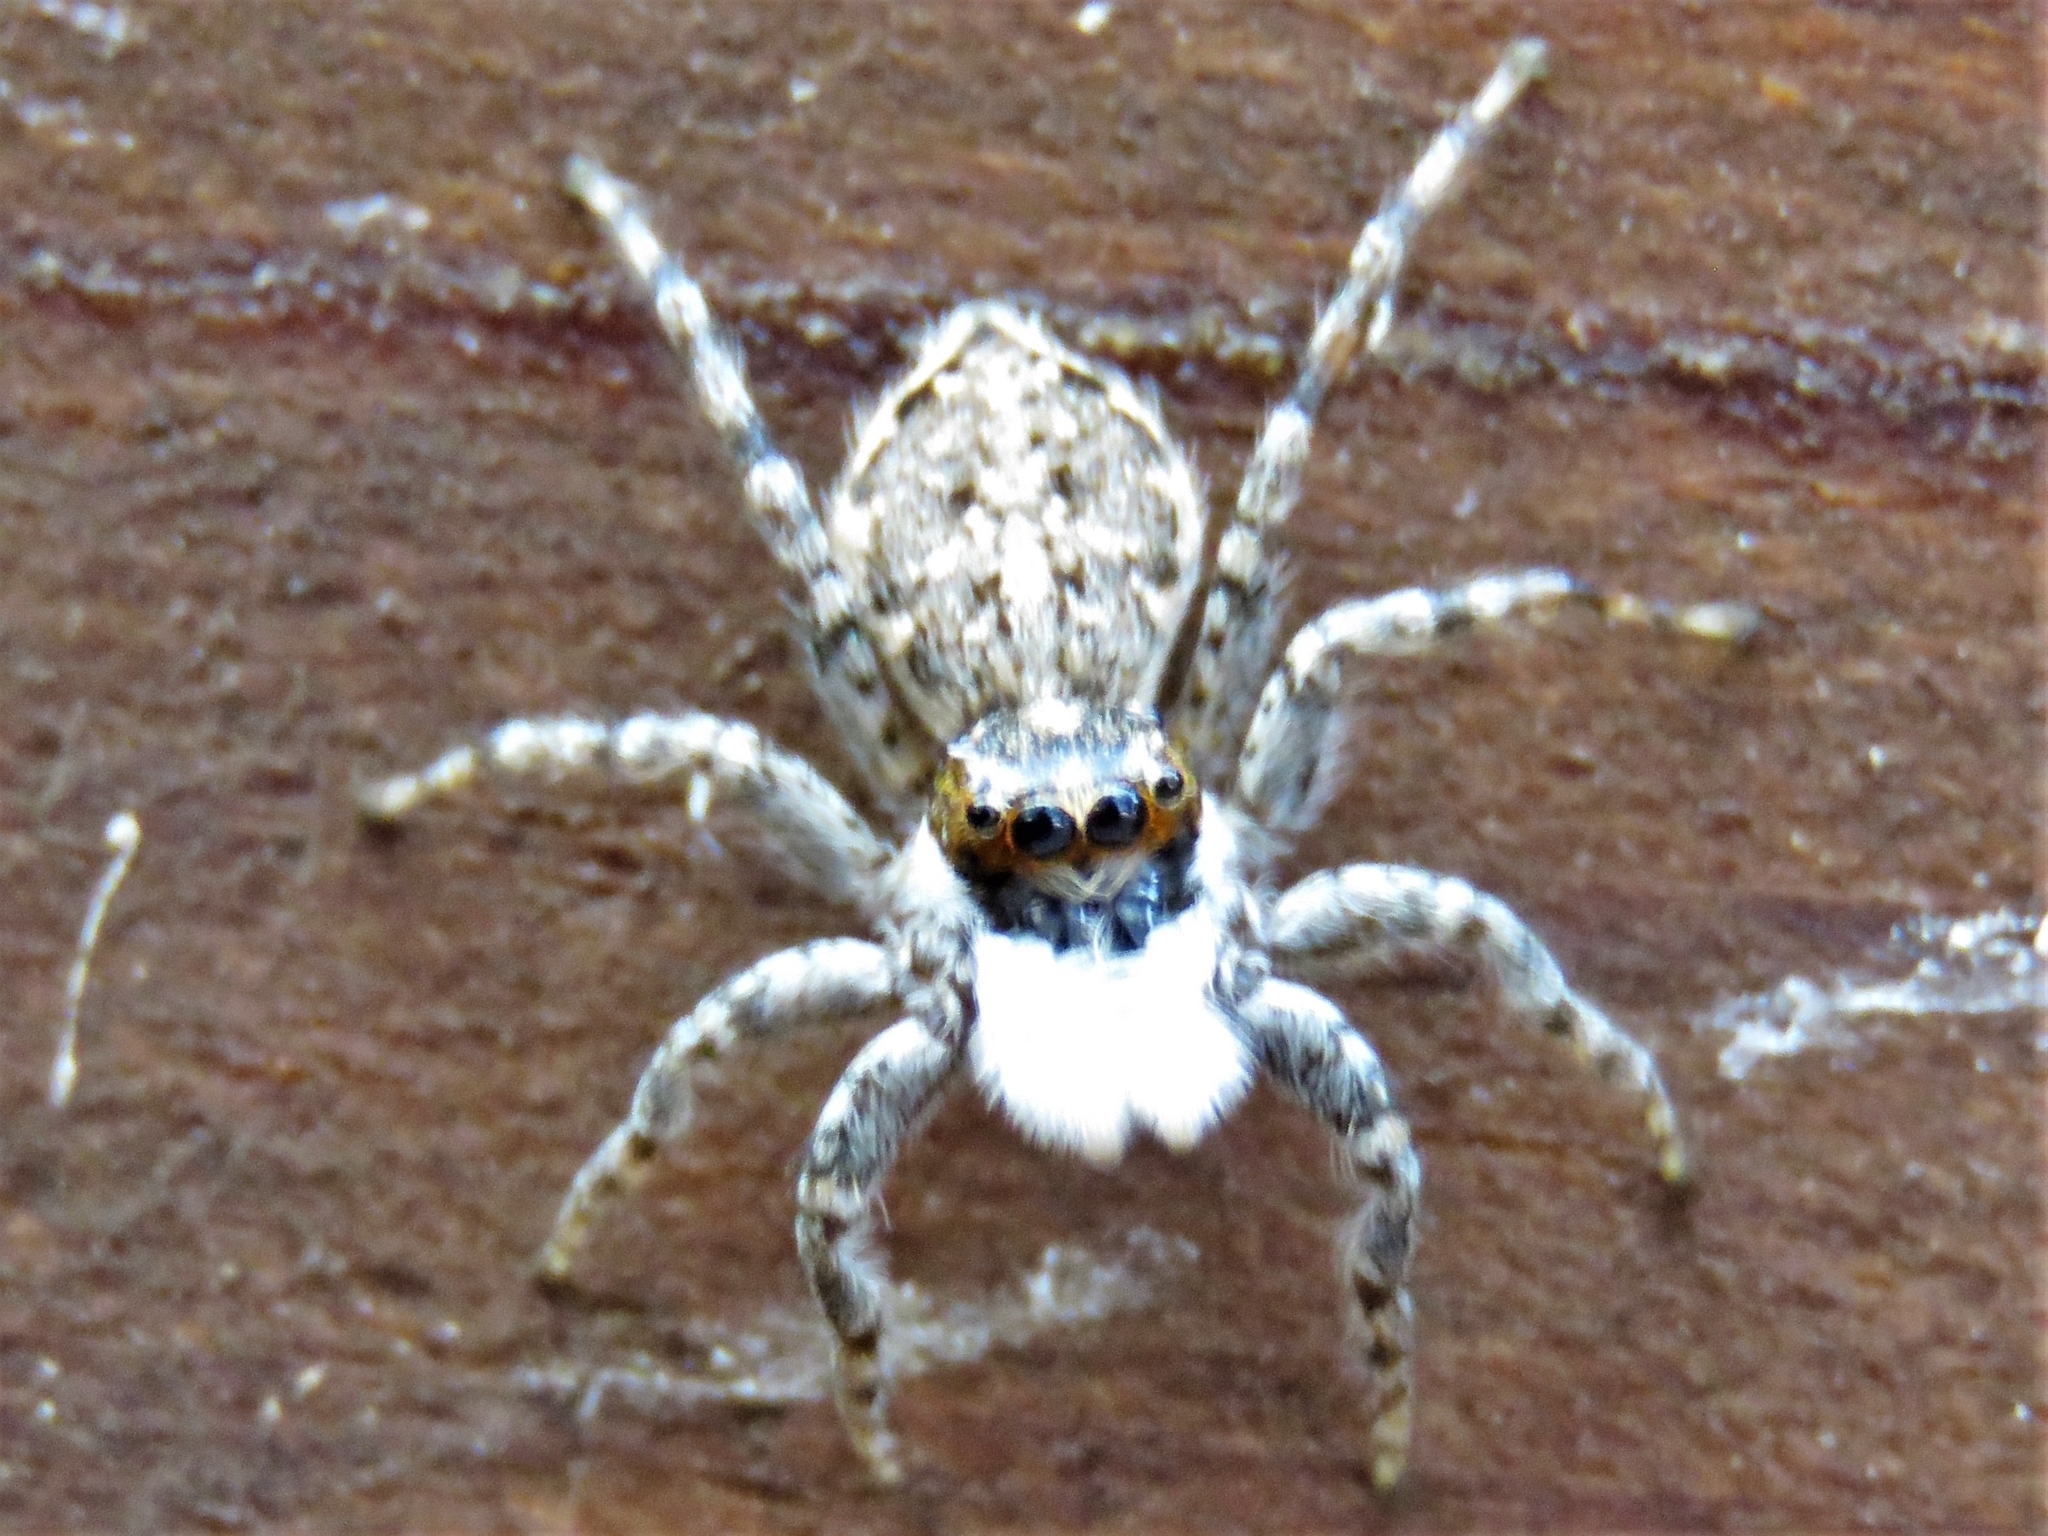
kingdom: Animalia
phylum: Arthropoda
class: Arachnida
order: Araneae
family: Salticidae
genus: Menemerus
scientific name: Menemerus semilimbatus
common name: Jumping spider
